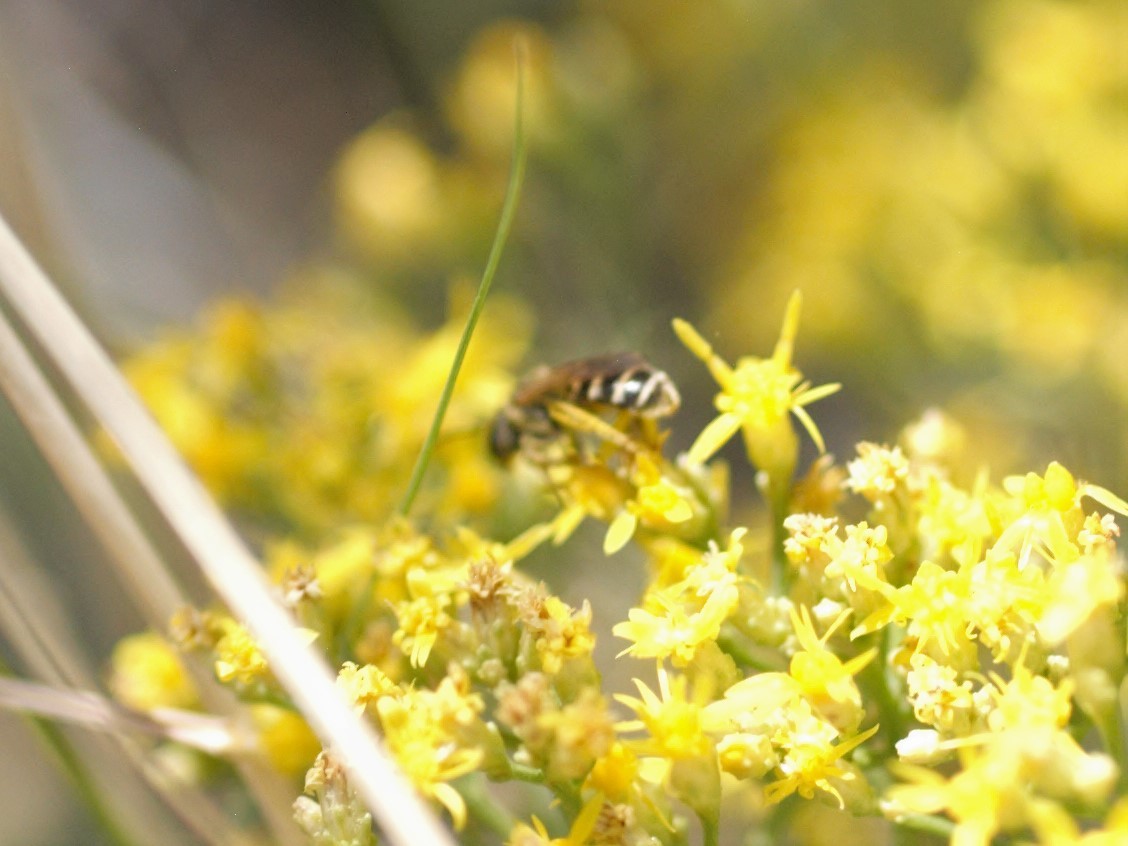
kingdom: Animalia
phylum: Arthropoda
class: Insecta
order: Hymenoptera
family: Halictidae
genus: Halictus
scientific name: Halictus
